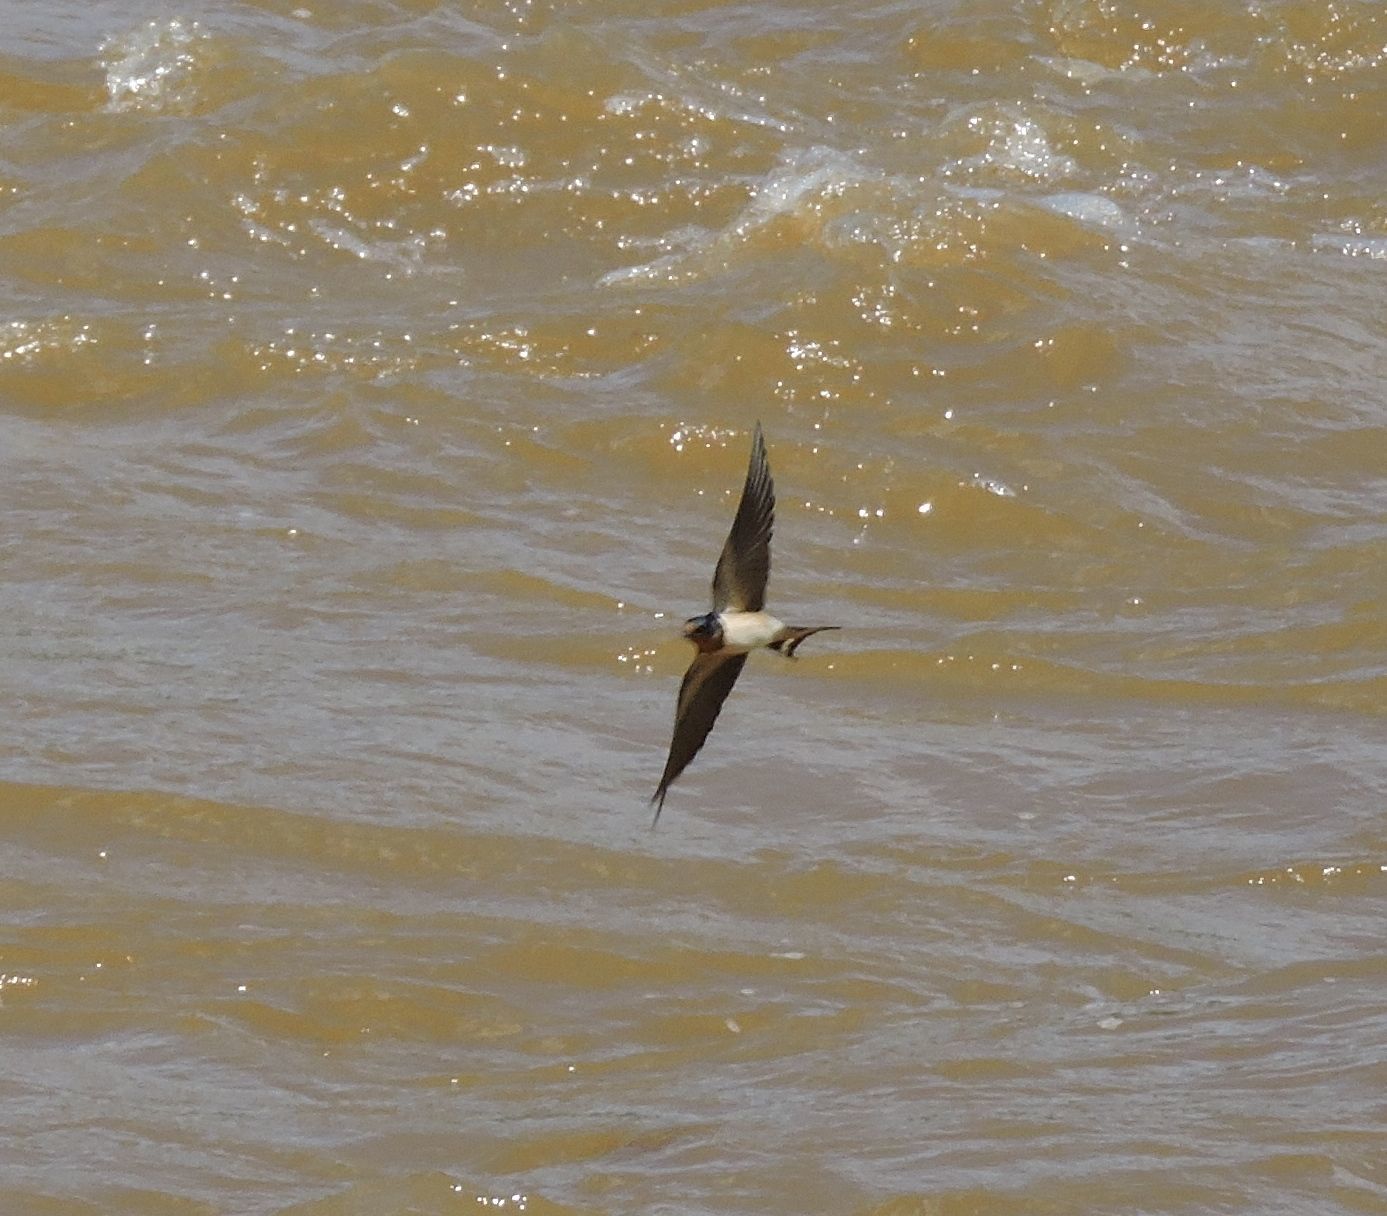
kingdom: Animalia
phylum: Chordata
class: Aves
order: Passeriformes
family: Hirundinidae
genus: Hirundo
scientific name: Hirundo rustica
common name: Barn swallow
